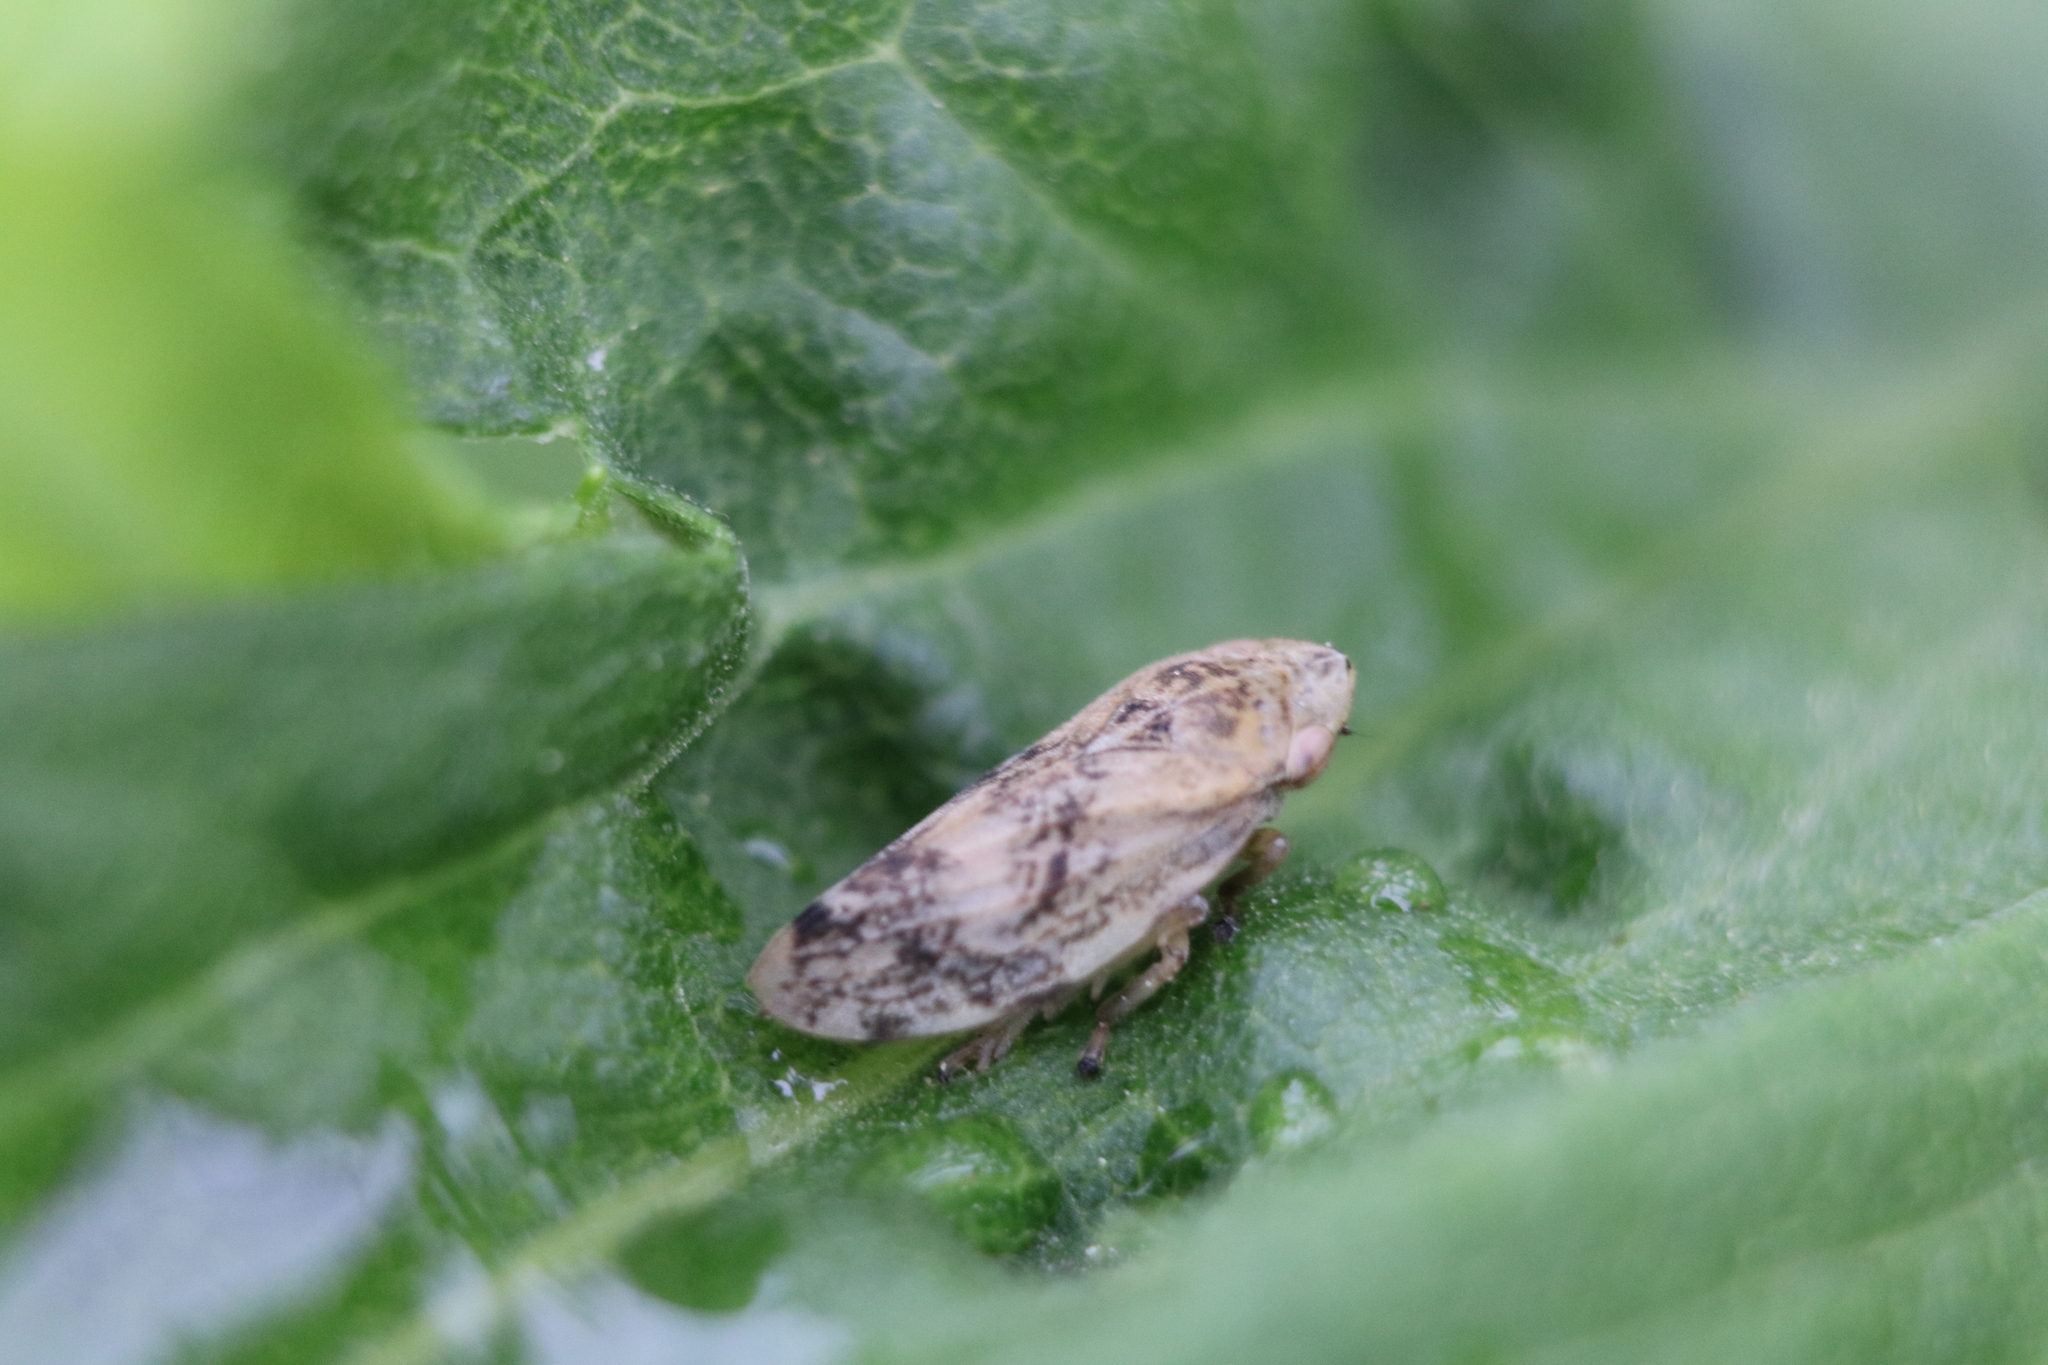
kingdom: Animalia
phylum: Arthropoda
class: Insecta
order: Hemiptera
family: Aphrophoridae
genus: Philaenus
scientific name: Philaenus spumarius
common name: Meadow spittlebug
